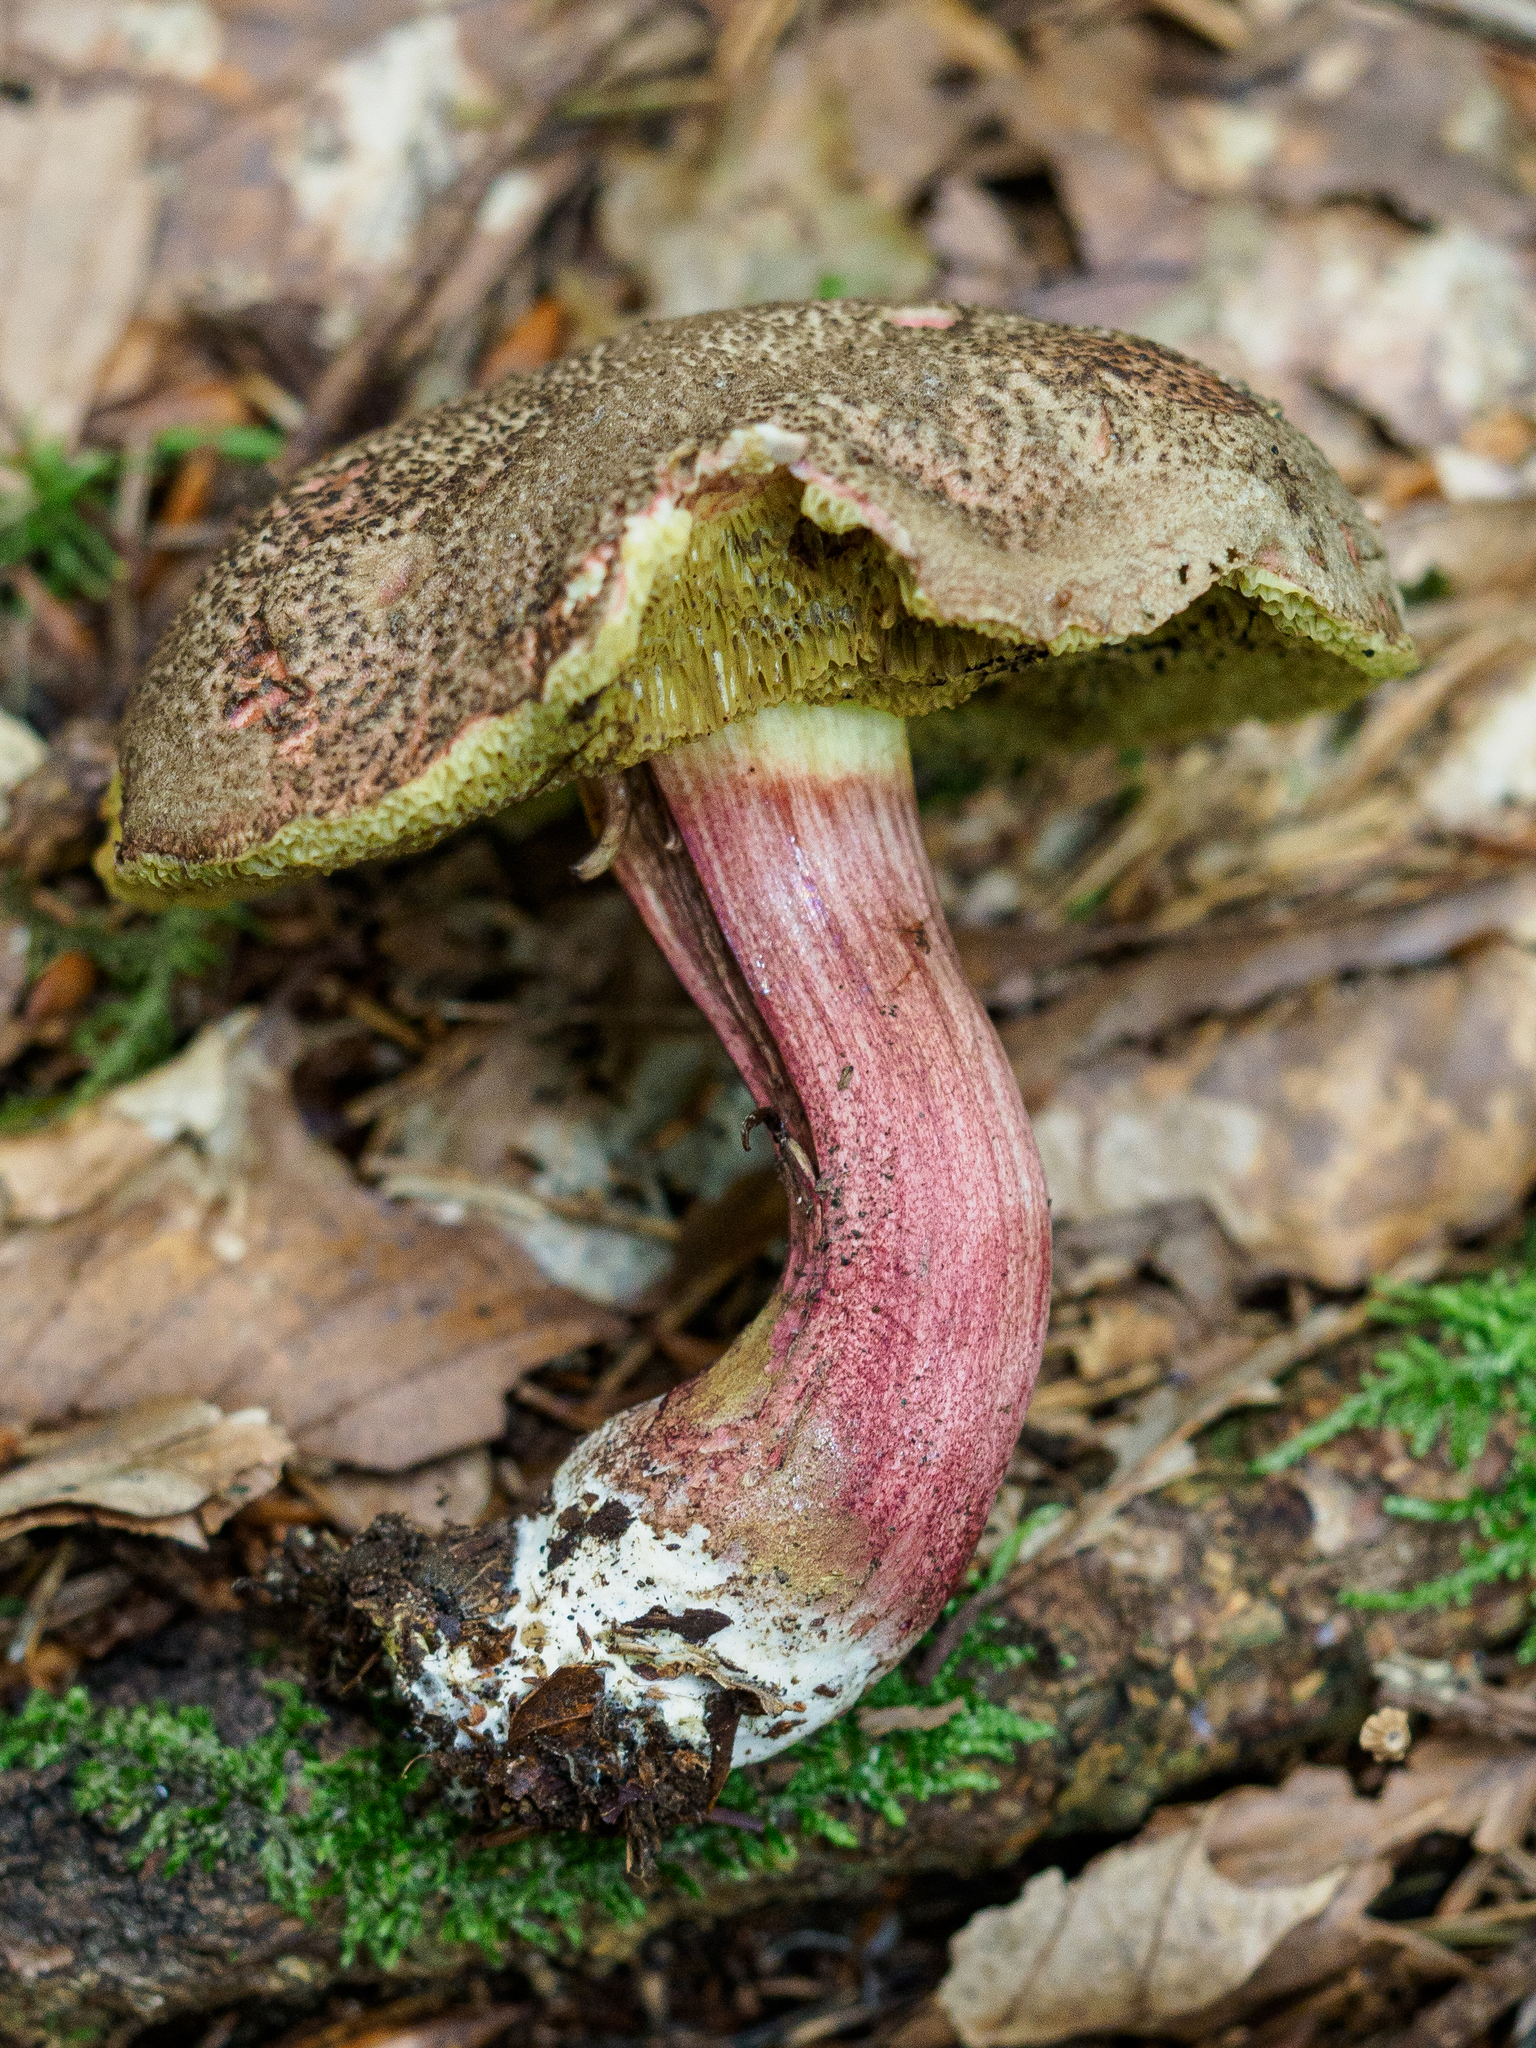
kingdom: Fungi
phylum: Basidiomycota
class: Agaricomycetes
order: Boletales
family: Boletaceae
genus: Xerocomellus
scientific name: Xerocomellus chrysenteron
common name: Red-cracking bolete
